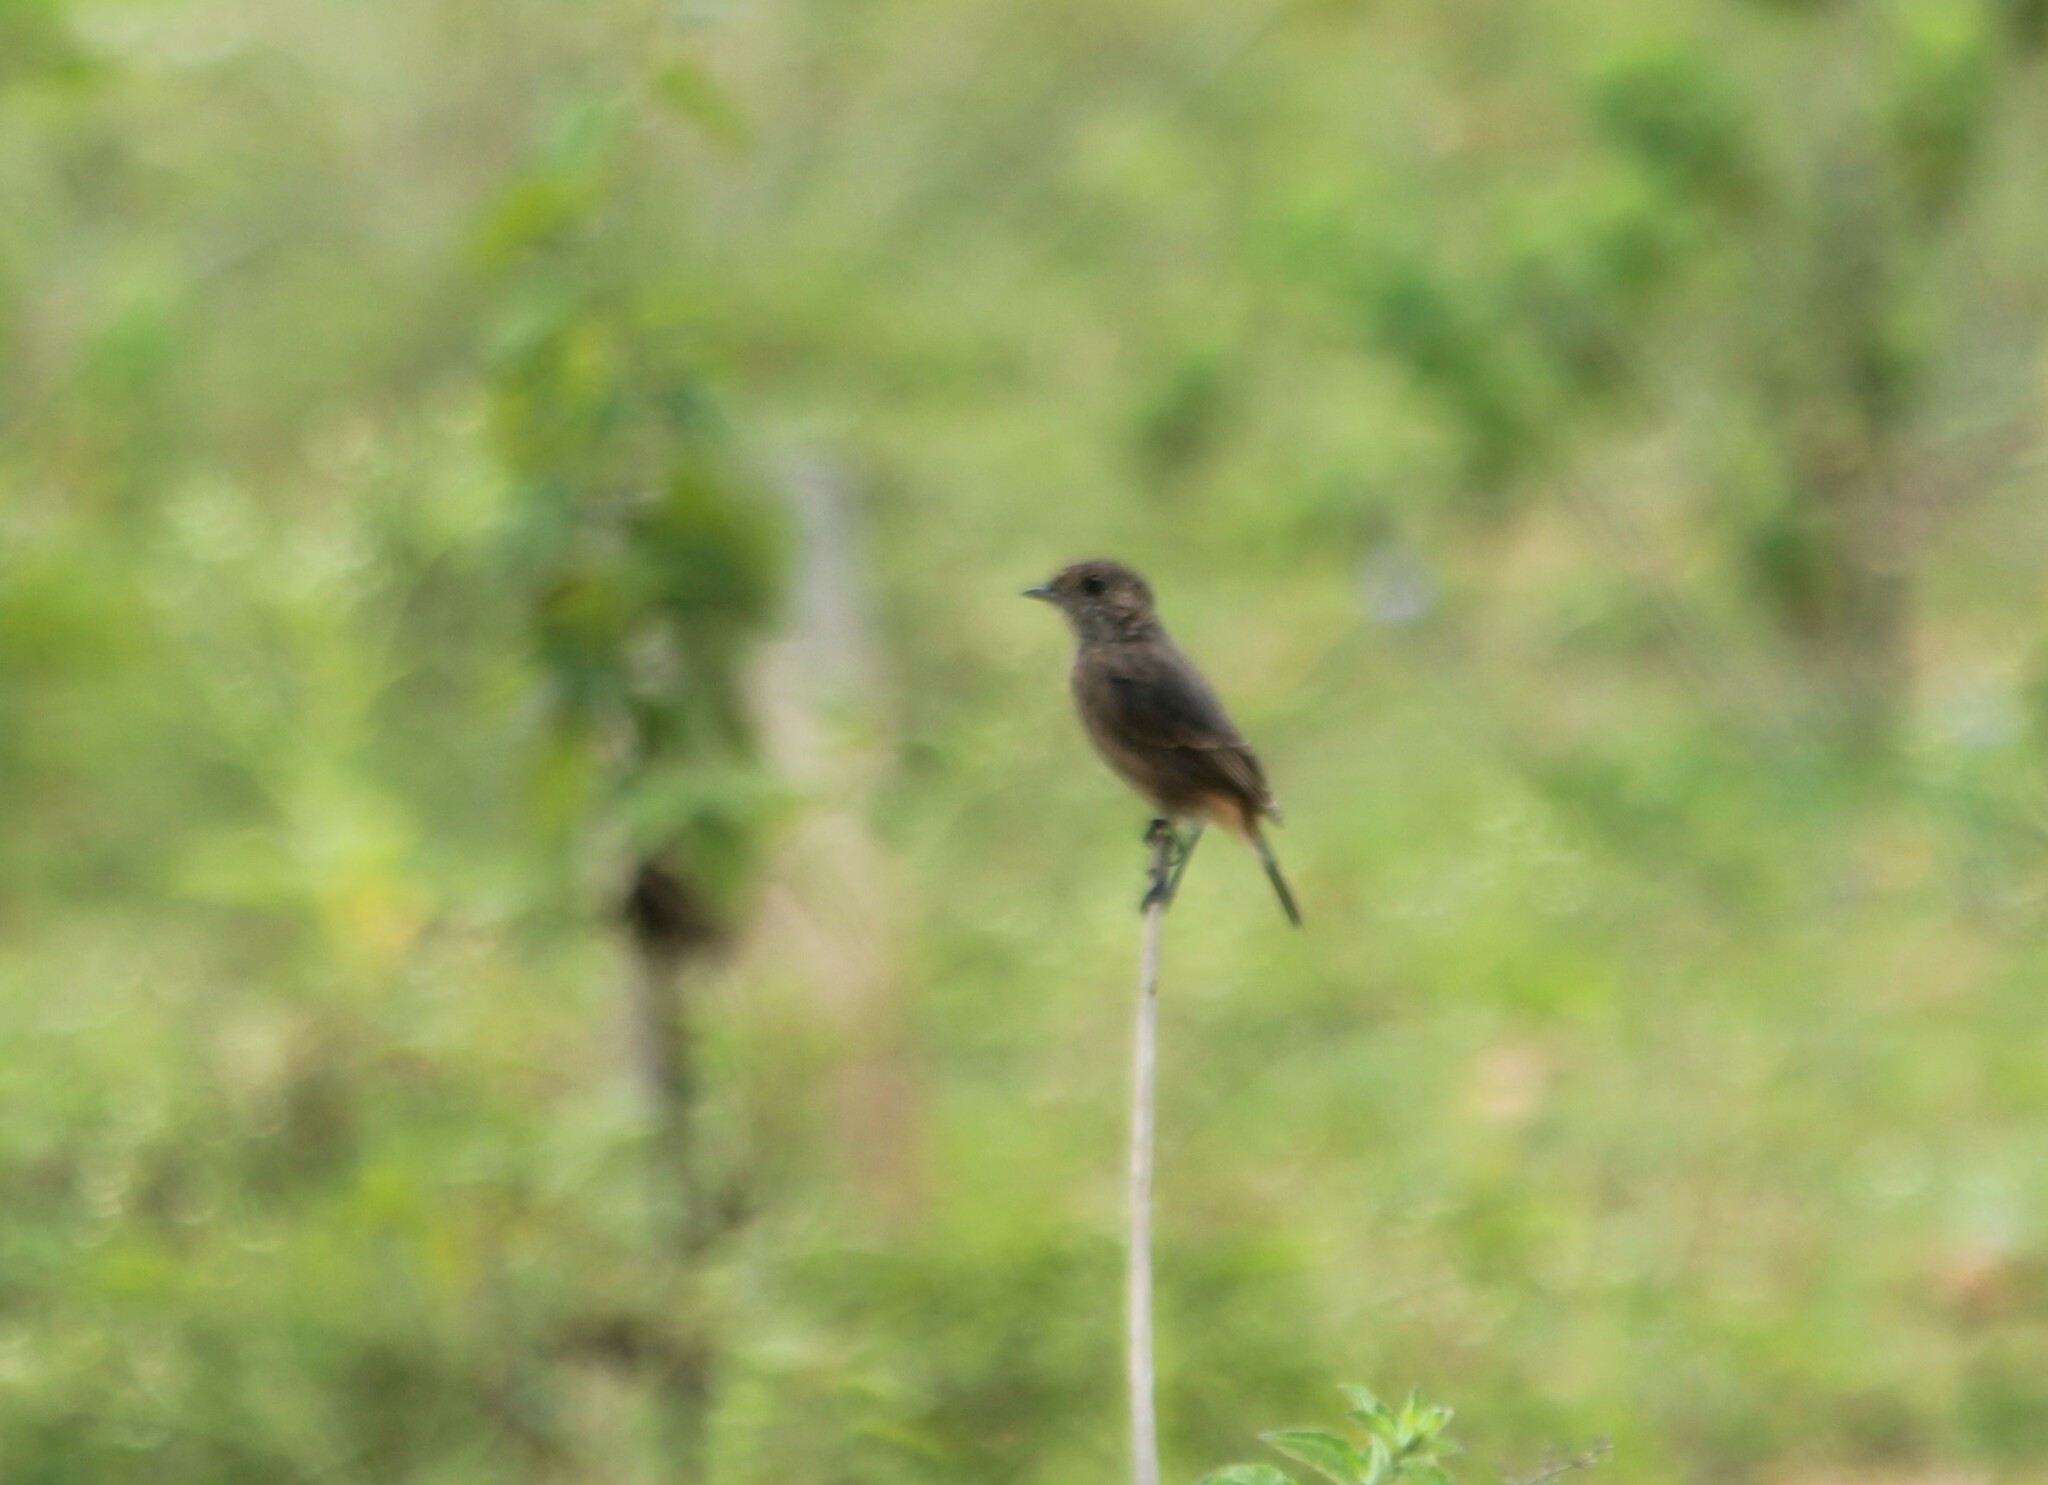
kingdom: Animalia
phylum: Chordata
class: Aves
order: Passeriformes
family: Muscicapidae
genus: Saxicola
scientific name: Saxicola caprata
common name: Pied bush chat
